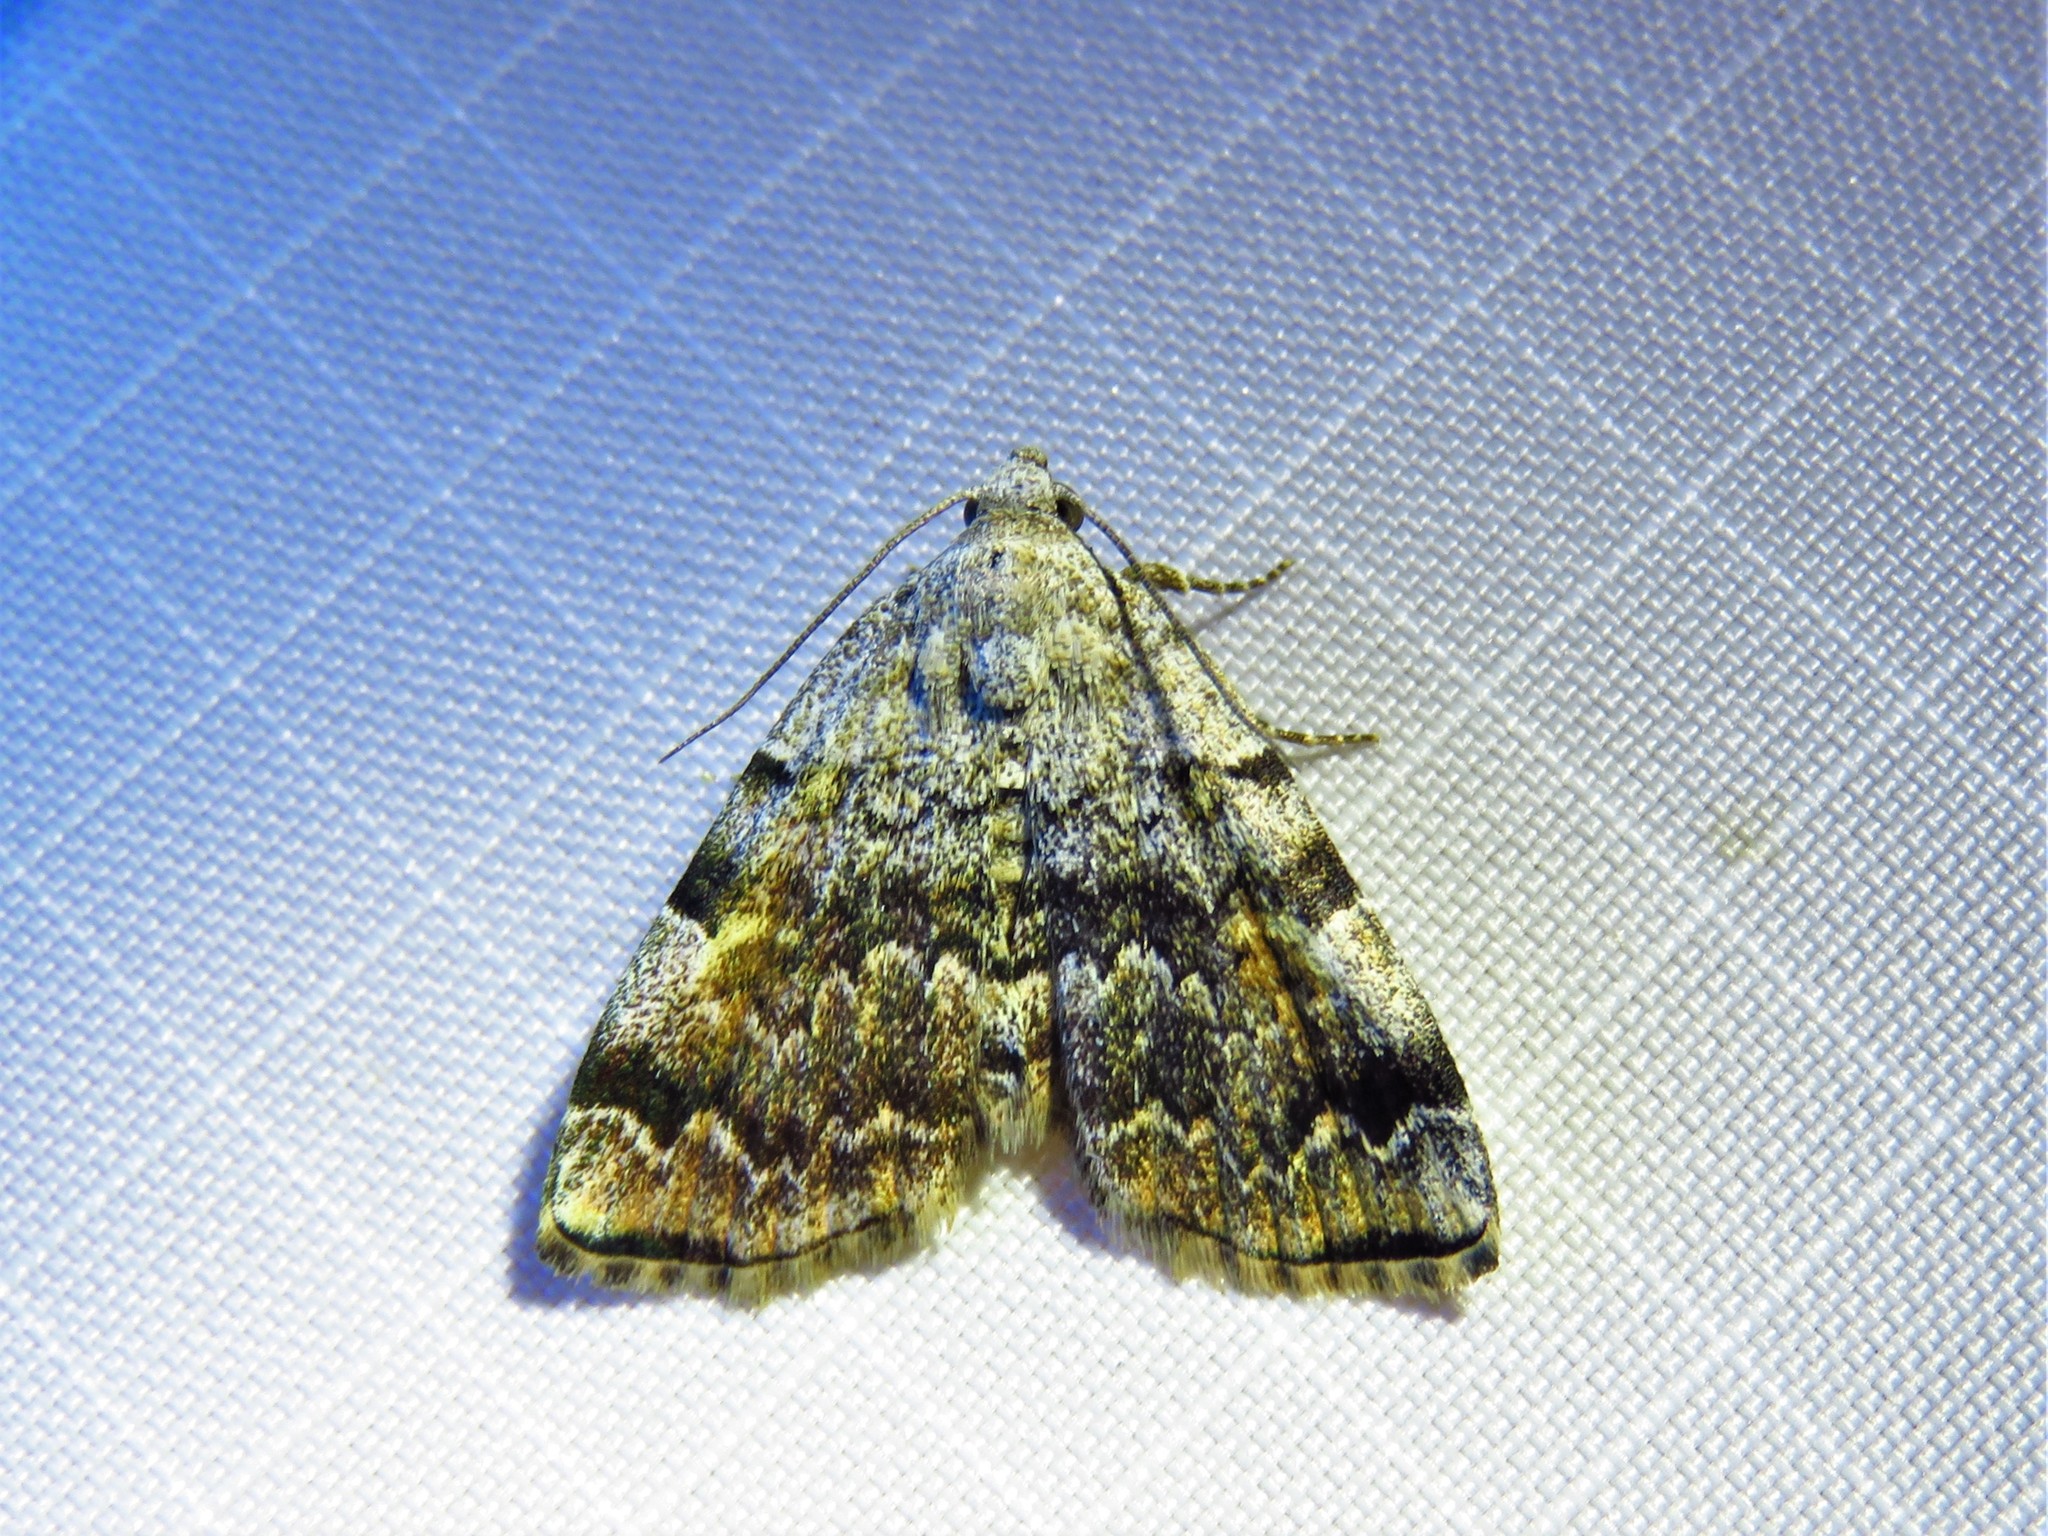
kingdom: Animalia
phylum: Arthropoda
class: Insecta
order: Lepidoptera
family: Erebidae
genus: Idia
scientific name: Idia americalis
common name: American idia moth
